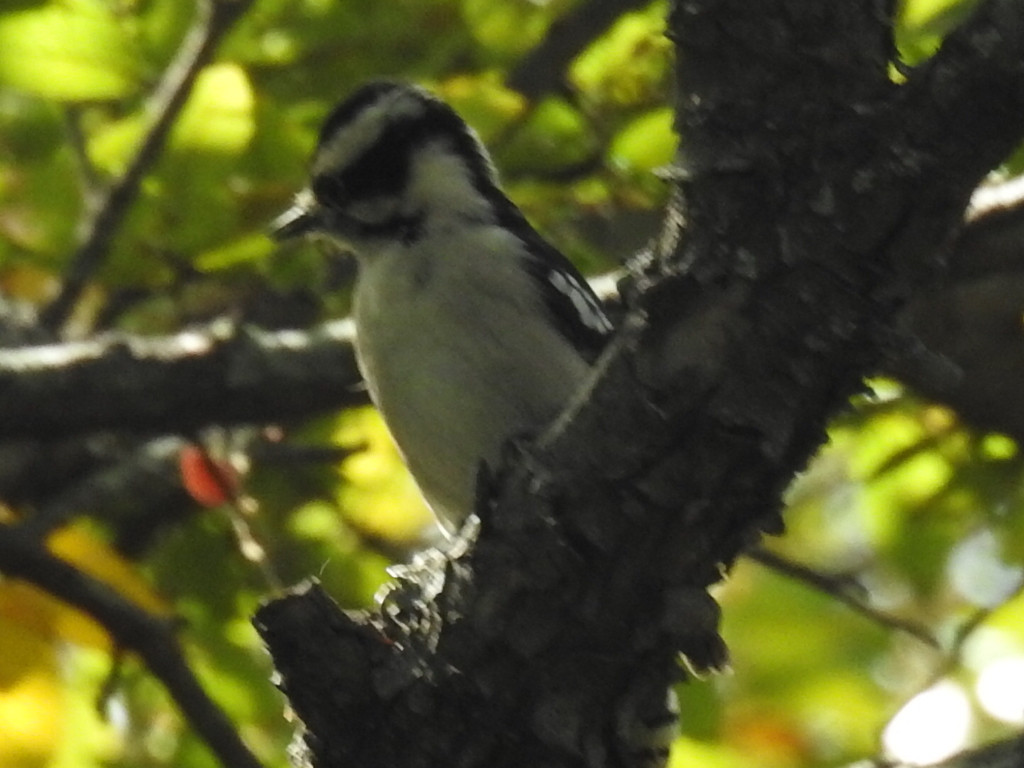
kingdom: Animalia
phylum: Chordata
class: Aves
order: Piciformes
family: Picidae
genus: Dryobates
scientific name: Dryobates pubescens
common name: Downy woodpecker
